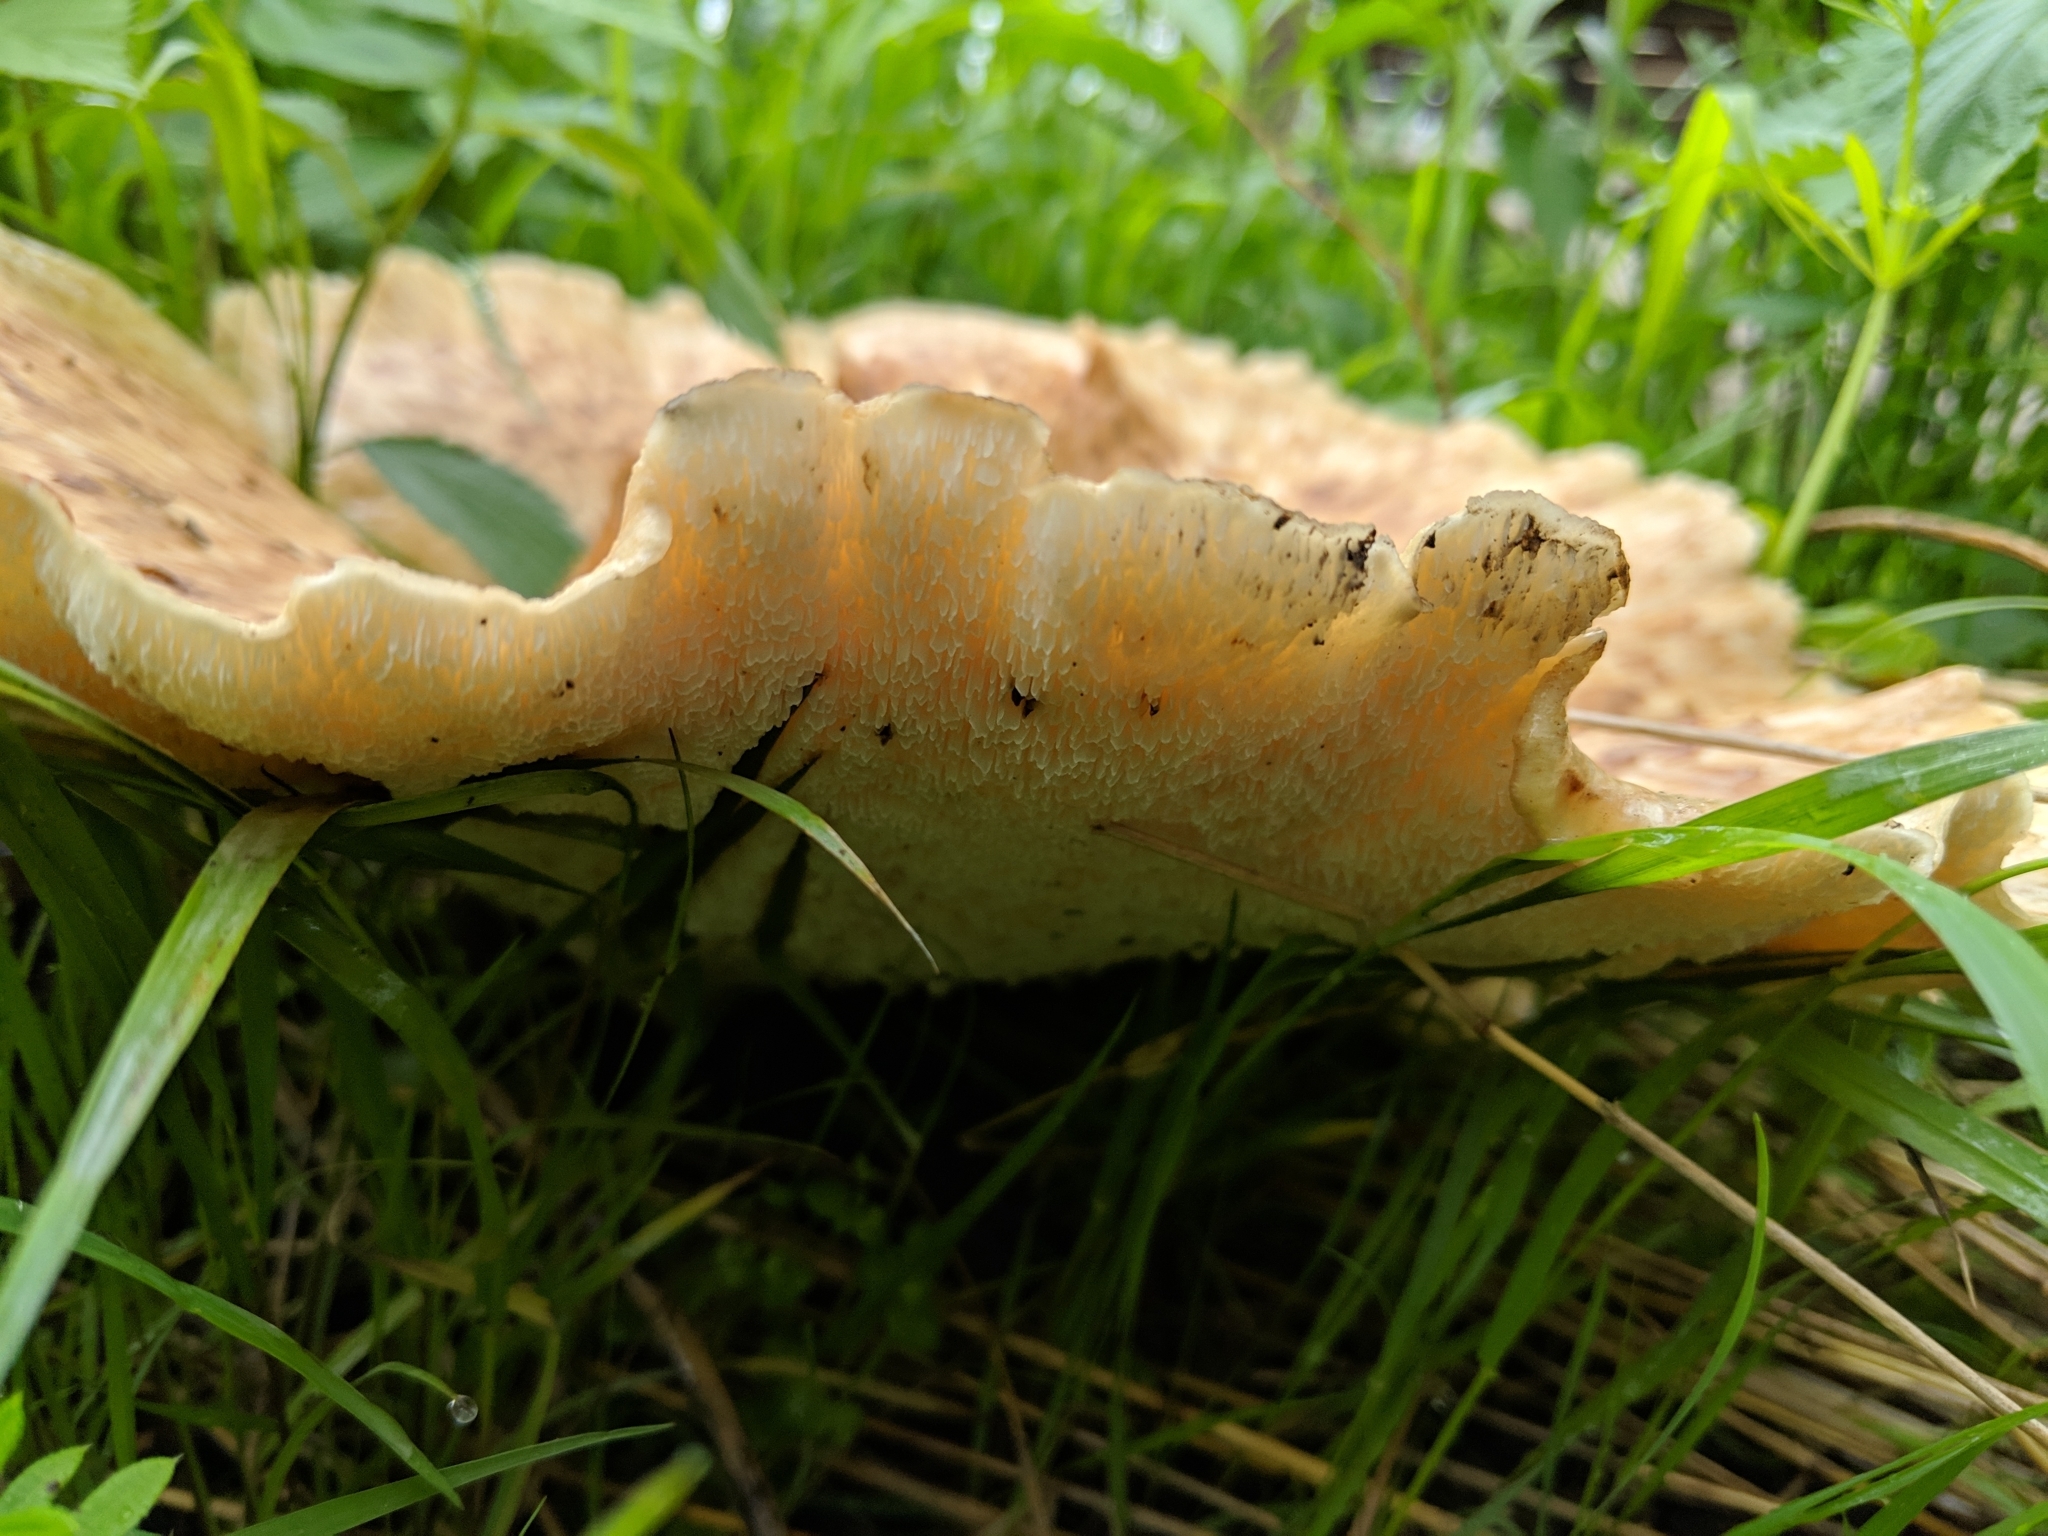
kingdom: Fungi
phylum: Basidiomycota
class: Agaricomycetes
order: Polyporales
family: Polyporaceae
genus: Cerioporus
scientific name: Cerioporus squamosus
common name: Dryad's saddle
